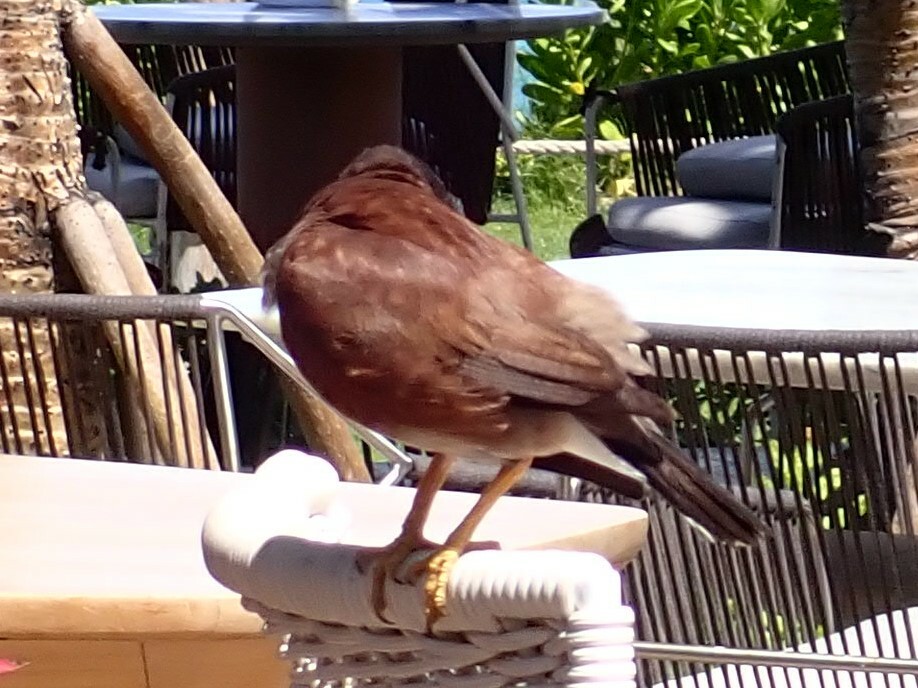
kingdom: Animalia
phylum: Chordata
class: Aves
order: Passeriformes
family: Sturnidae
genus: Acridotheres
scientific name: Acridotheres tristis
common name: Common myna
